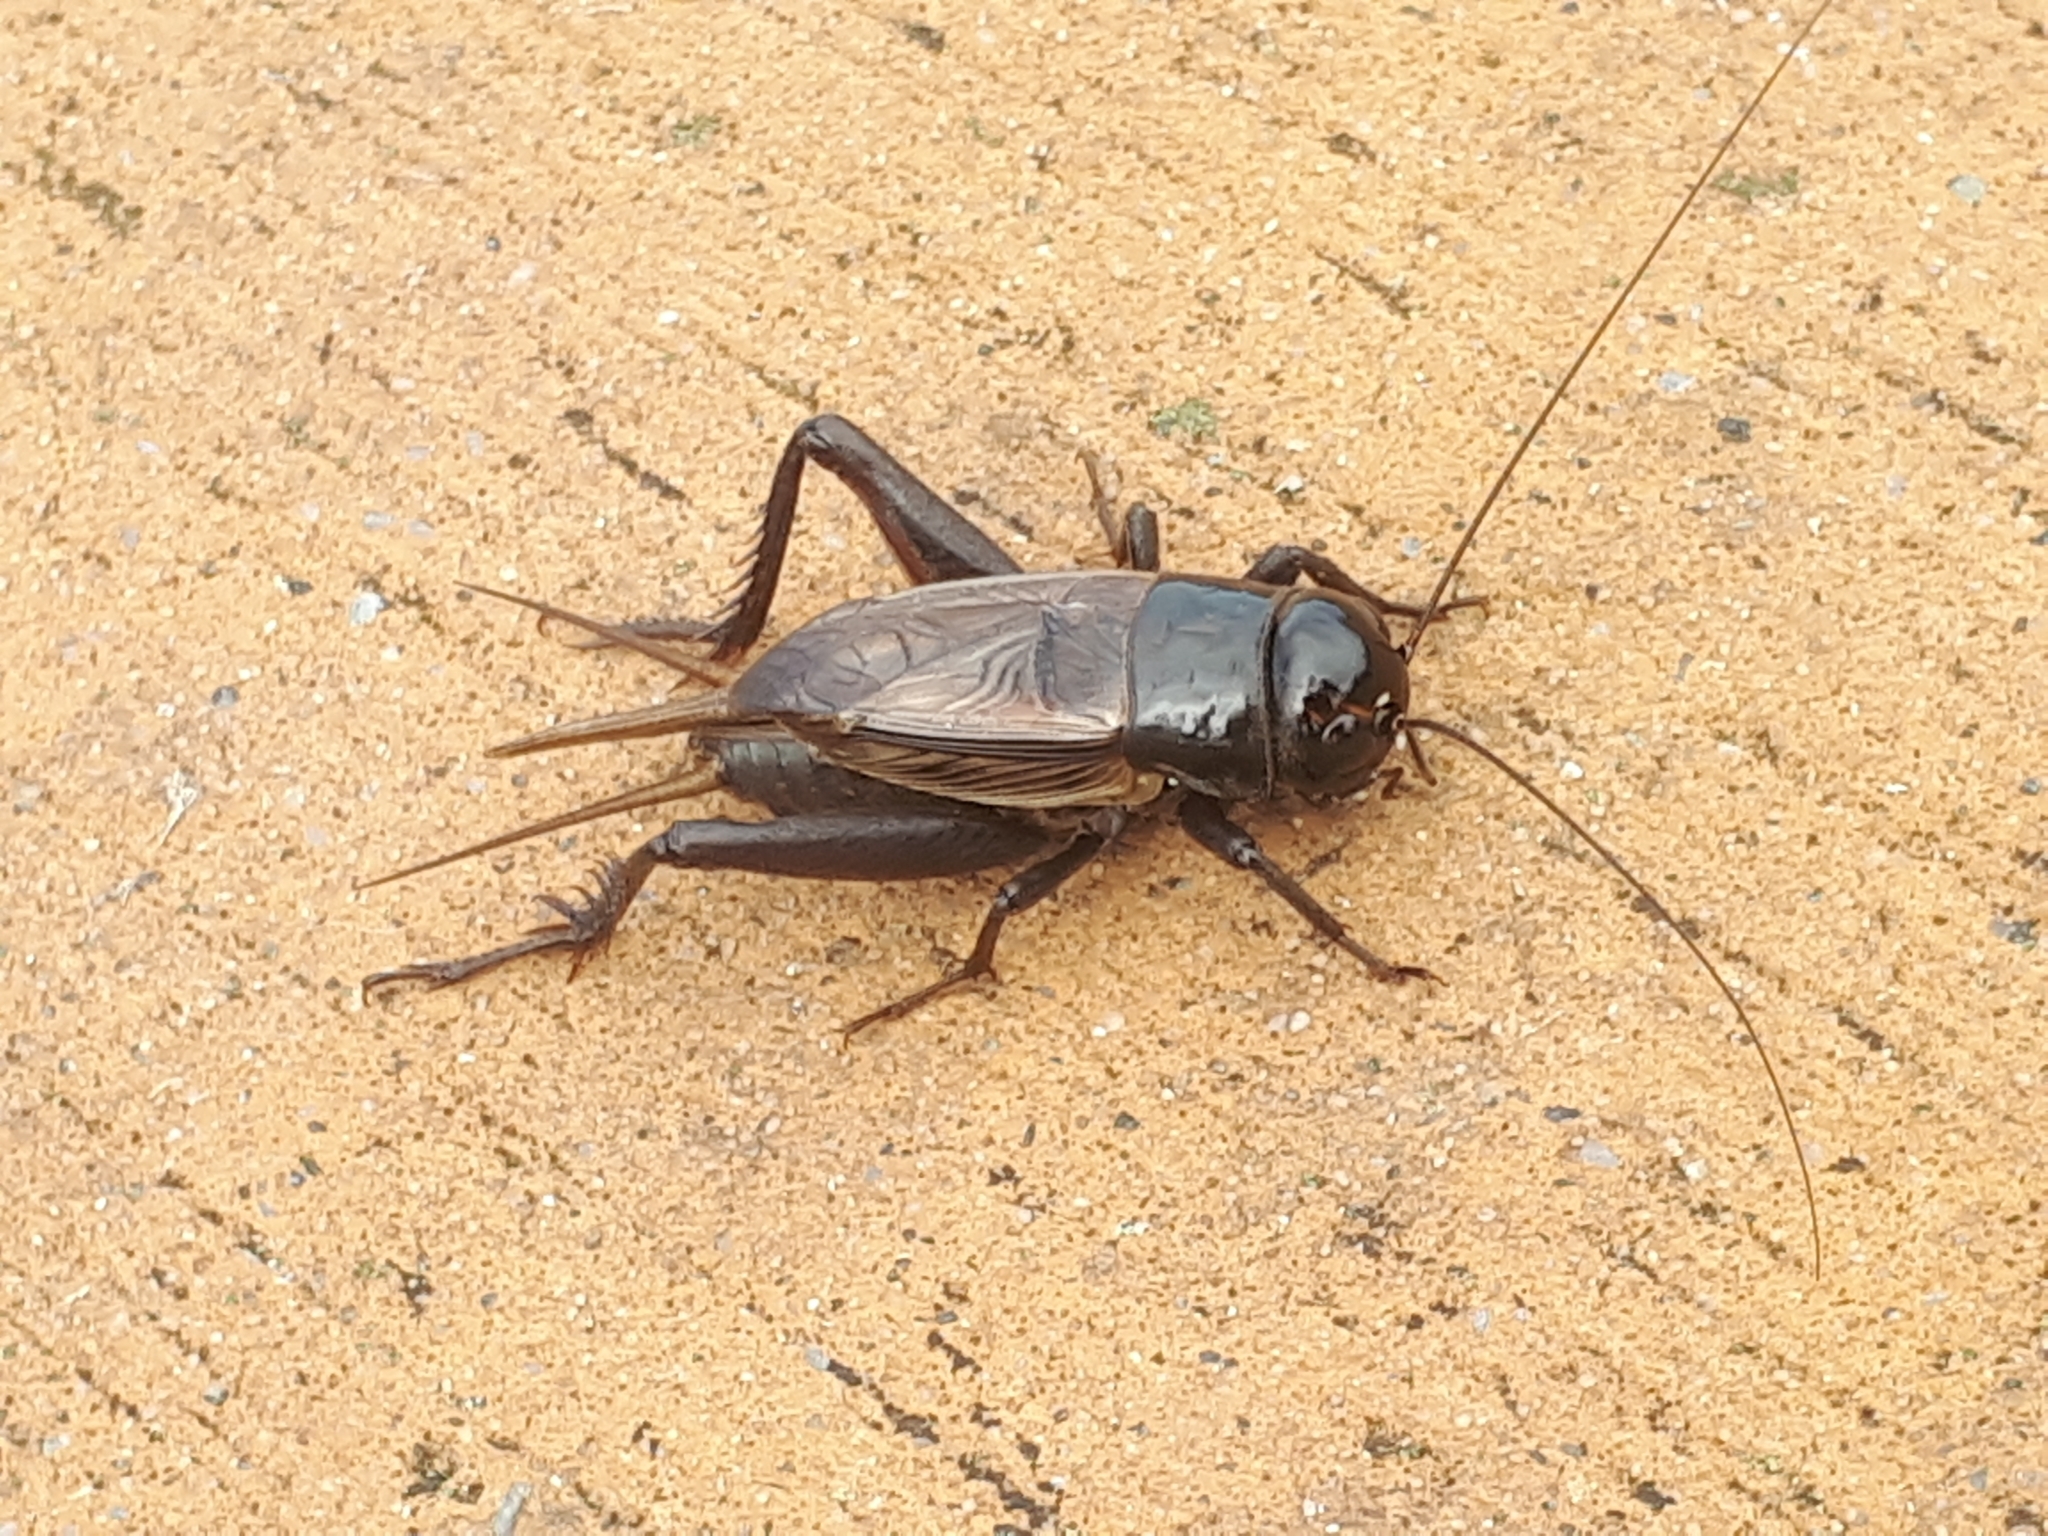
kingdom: Animalia
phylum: Arthropoda
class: Insecta
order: Orthoptera
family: Gryllidae
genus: Teleogryllus
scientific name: Teleogryllus commodus
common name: Black field cricket
